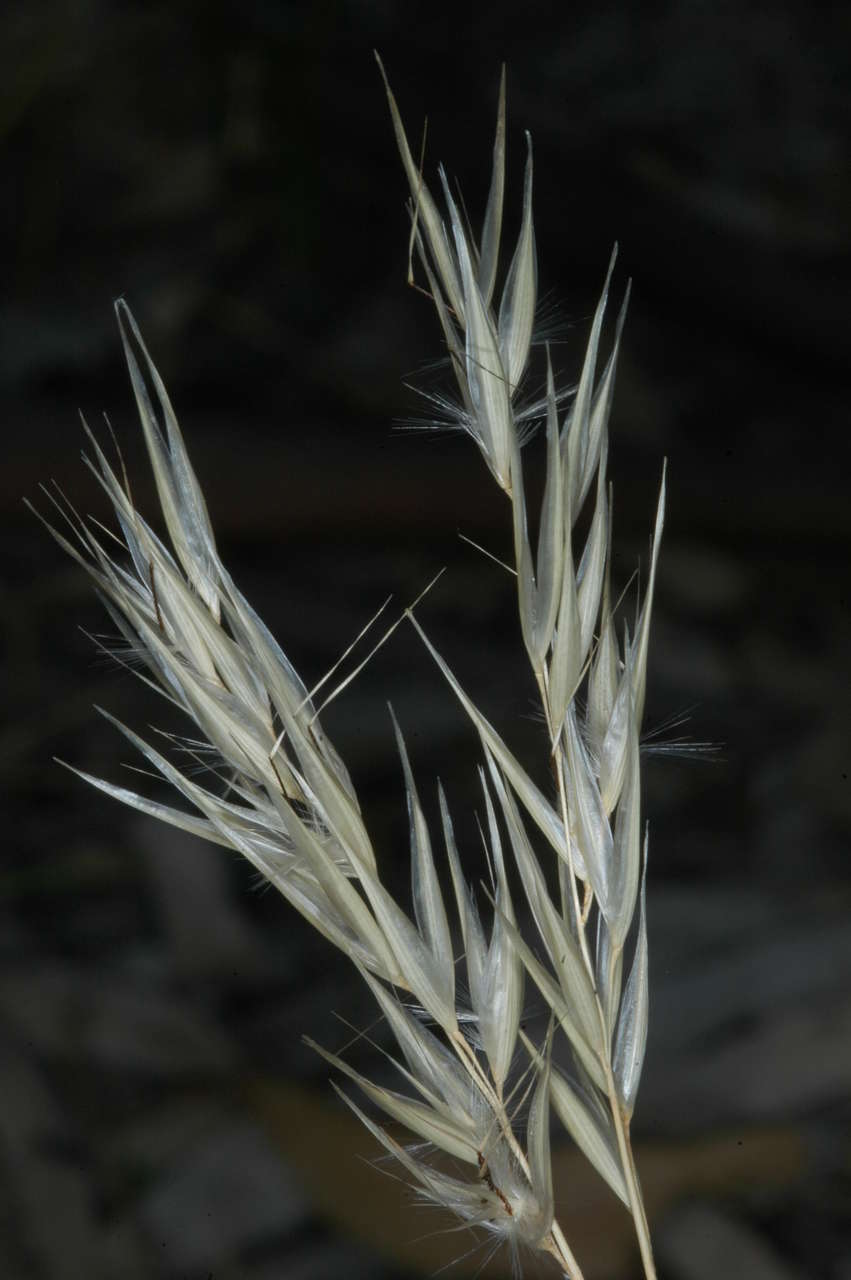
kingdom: Plantae
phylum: Tracheophyta
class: Liliopsida
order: Poales
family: Poaceae
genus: Rytidosperma
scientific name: Rytidosperma caespitosum
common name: Tufted wallaby grass
